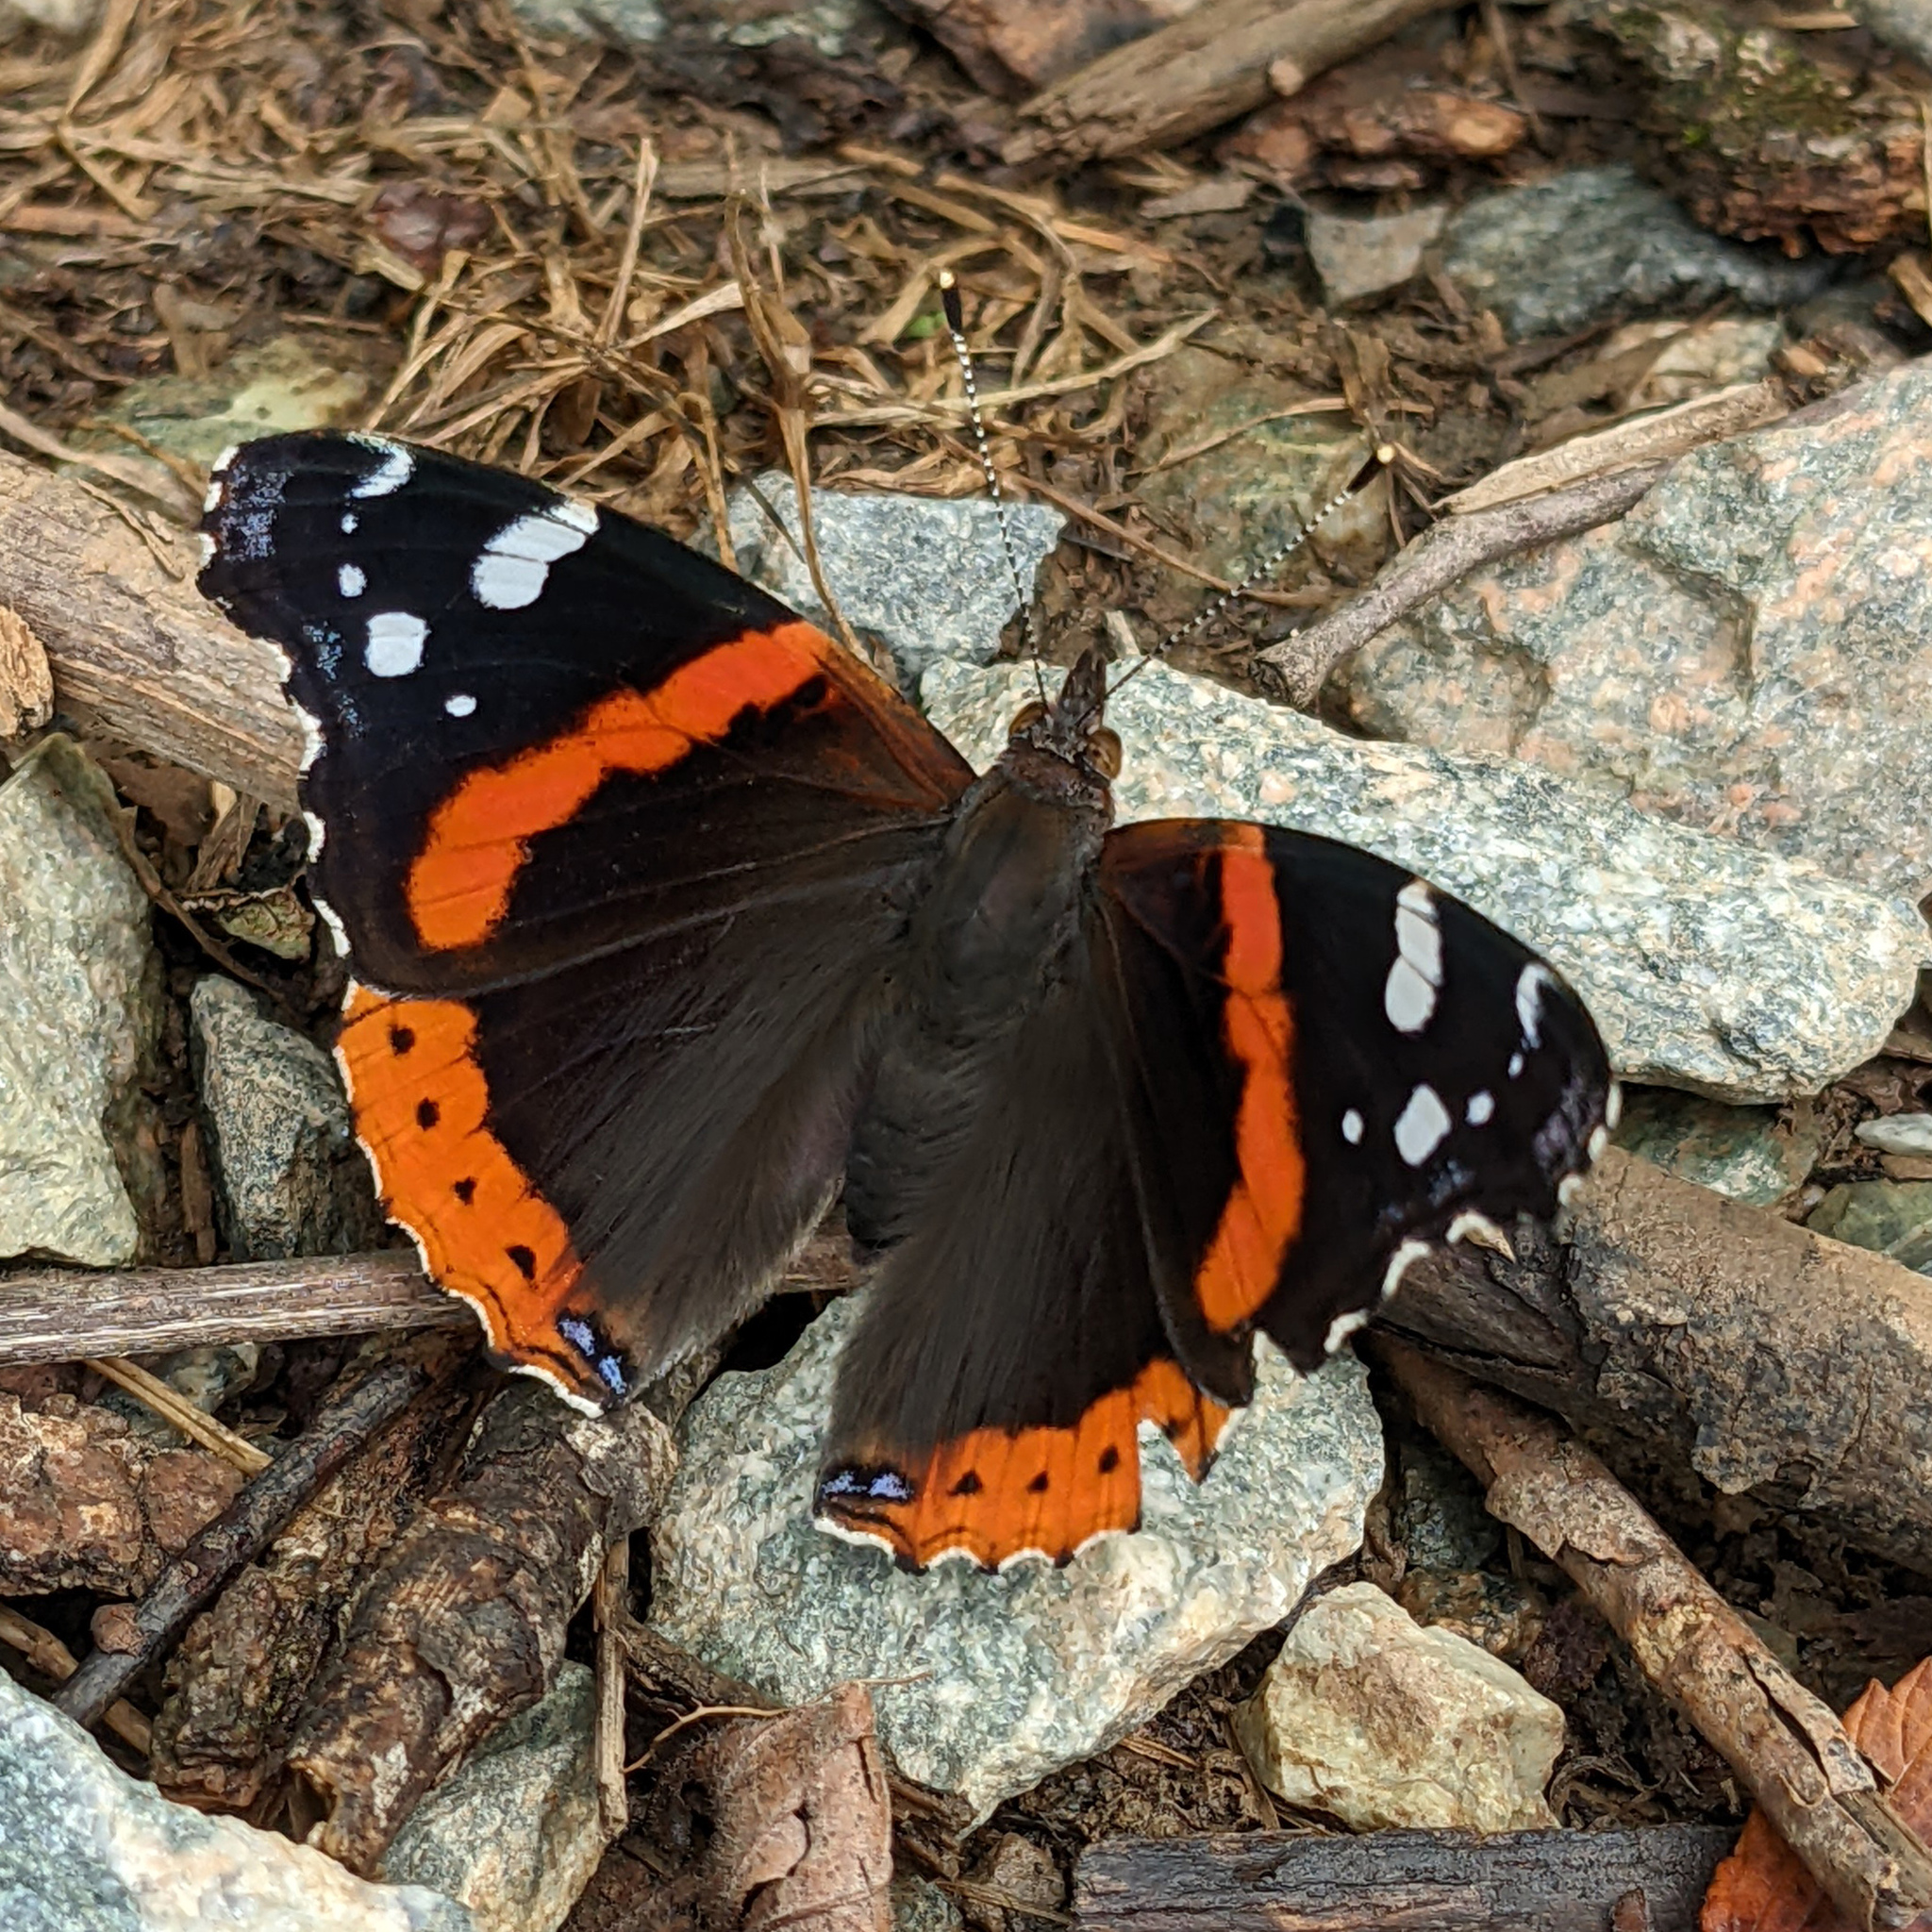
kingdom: Animalia
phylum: Arthropoda
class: Insecta
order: Lepidoptera
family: Nymphalidae
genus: Vanessa
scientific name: Vanessa atalanta
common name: Red admiral
